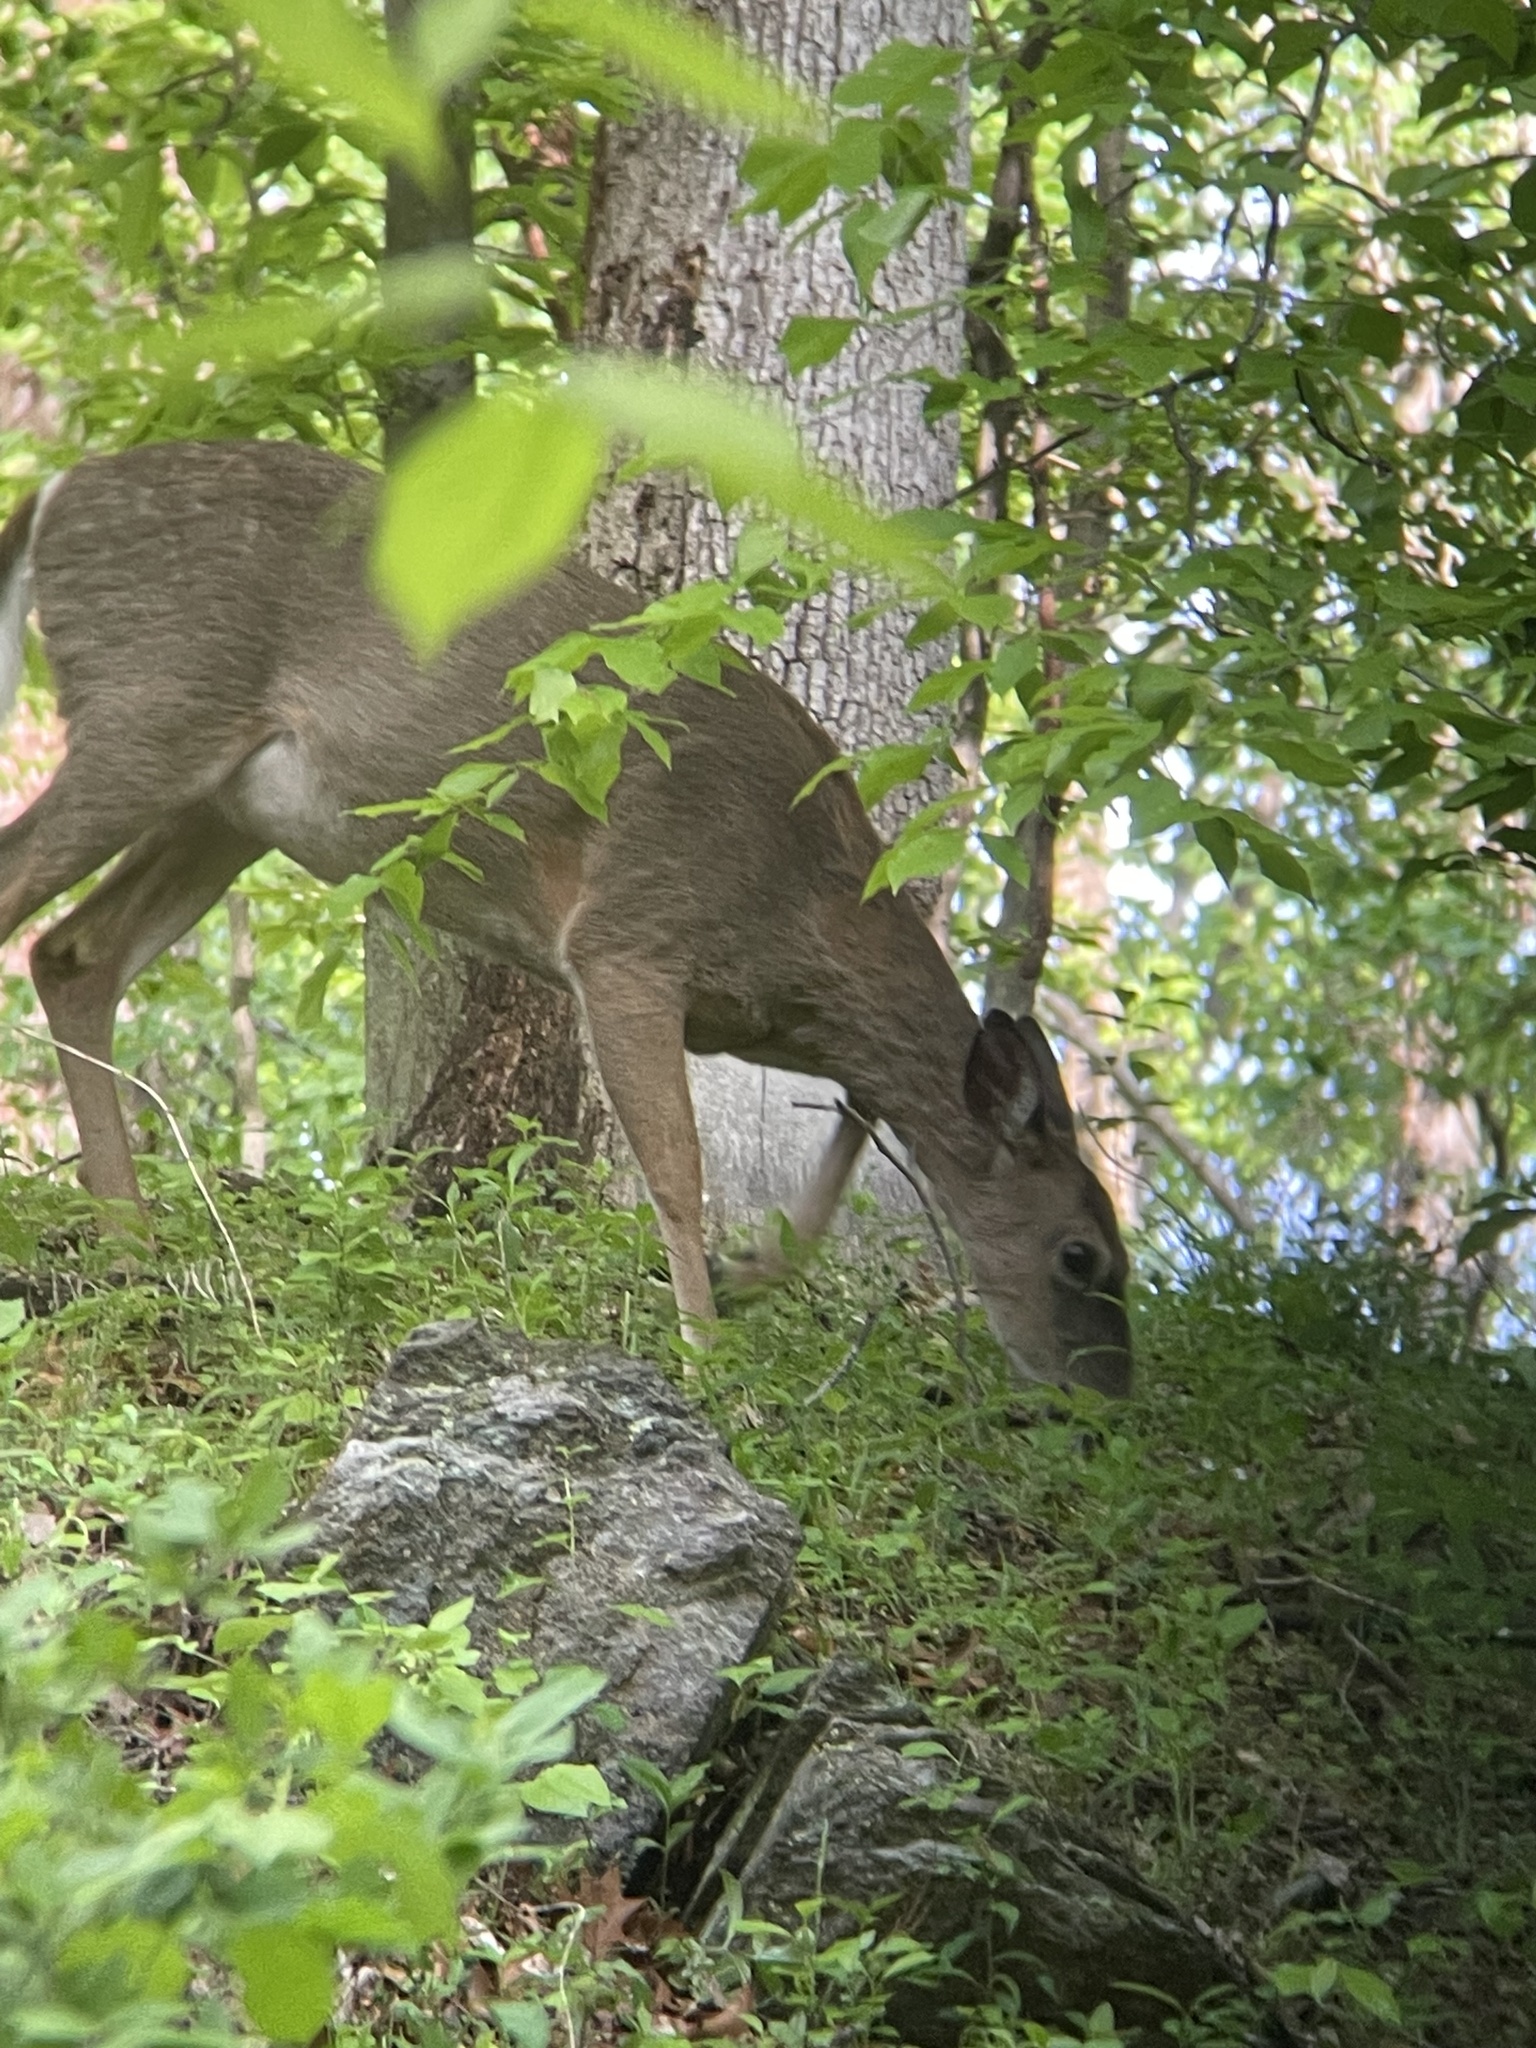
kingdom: Animalia
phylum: Chordata
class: Mammalia
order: Artiodactyla
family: Cervidae
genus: Odocoileus
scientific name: Odocoileus virginianus
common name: White-tailed deer
